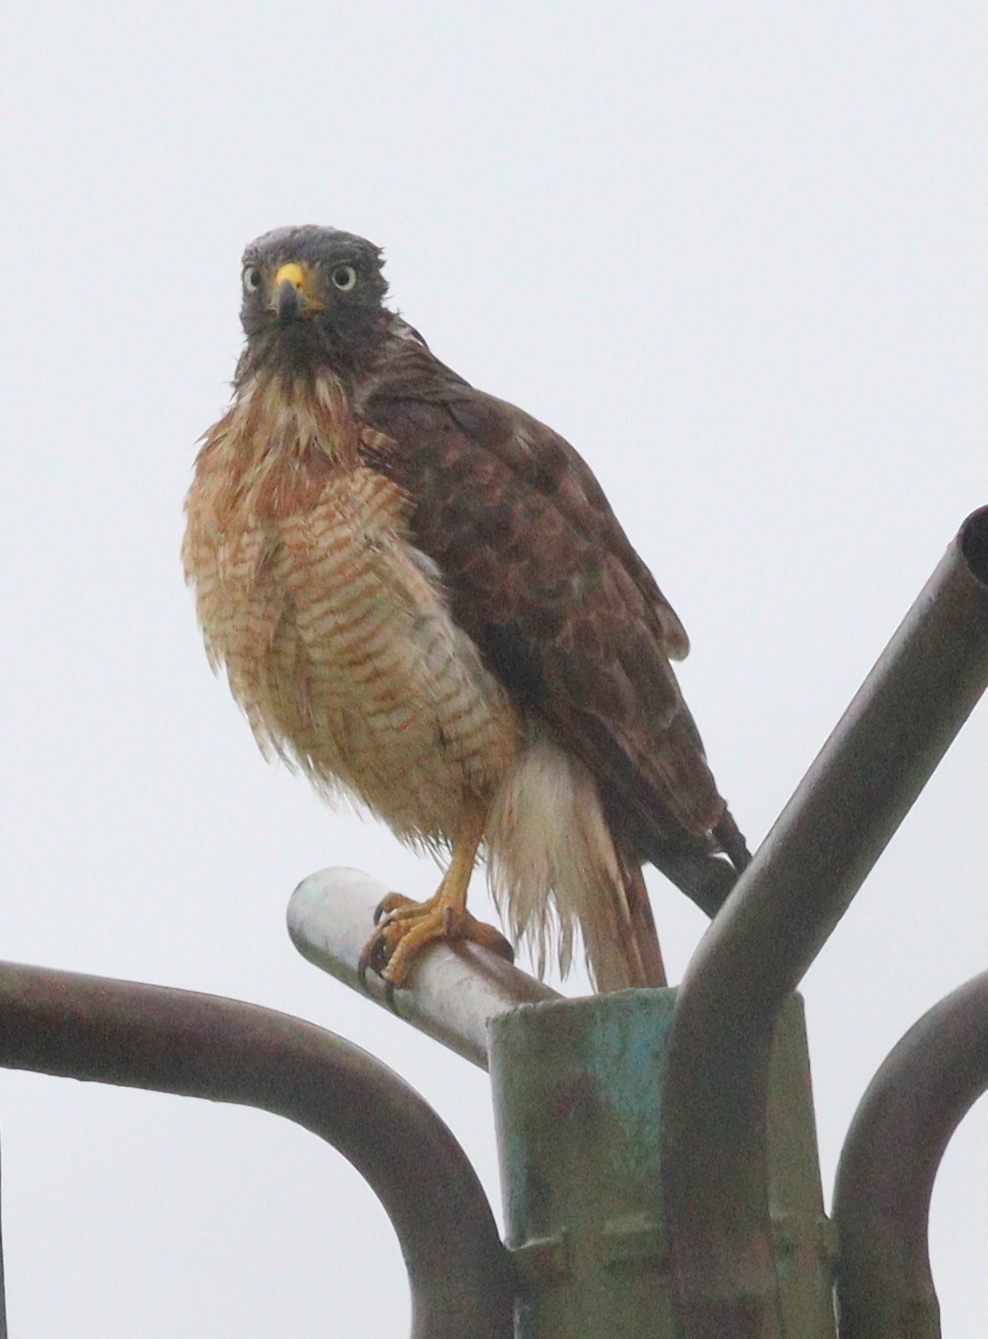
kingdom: Animalia
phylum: Chordata
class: Aves
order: Accipitriformes
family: Accipitridae
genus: Rupornis
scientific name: Rupornis magnirostris
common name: Roadside hawk
